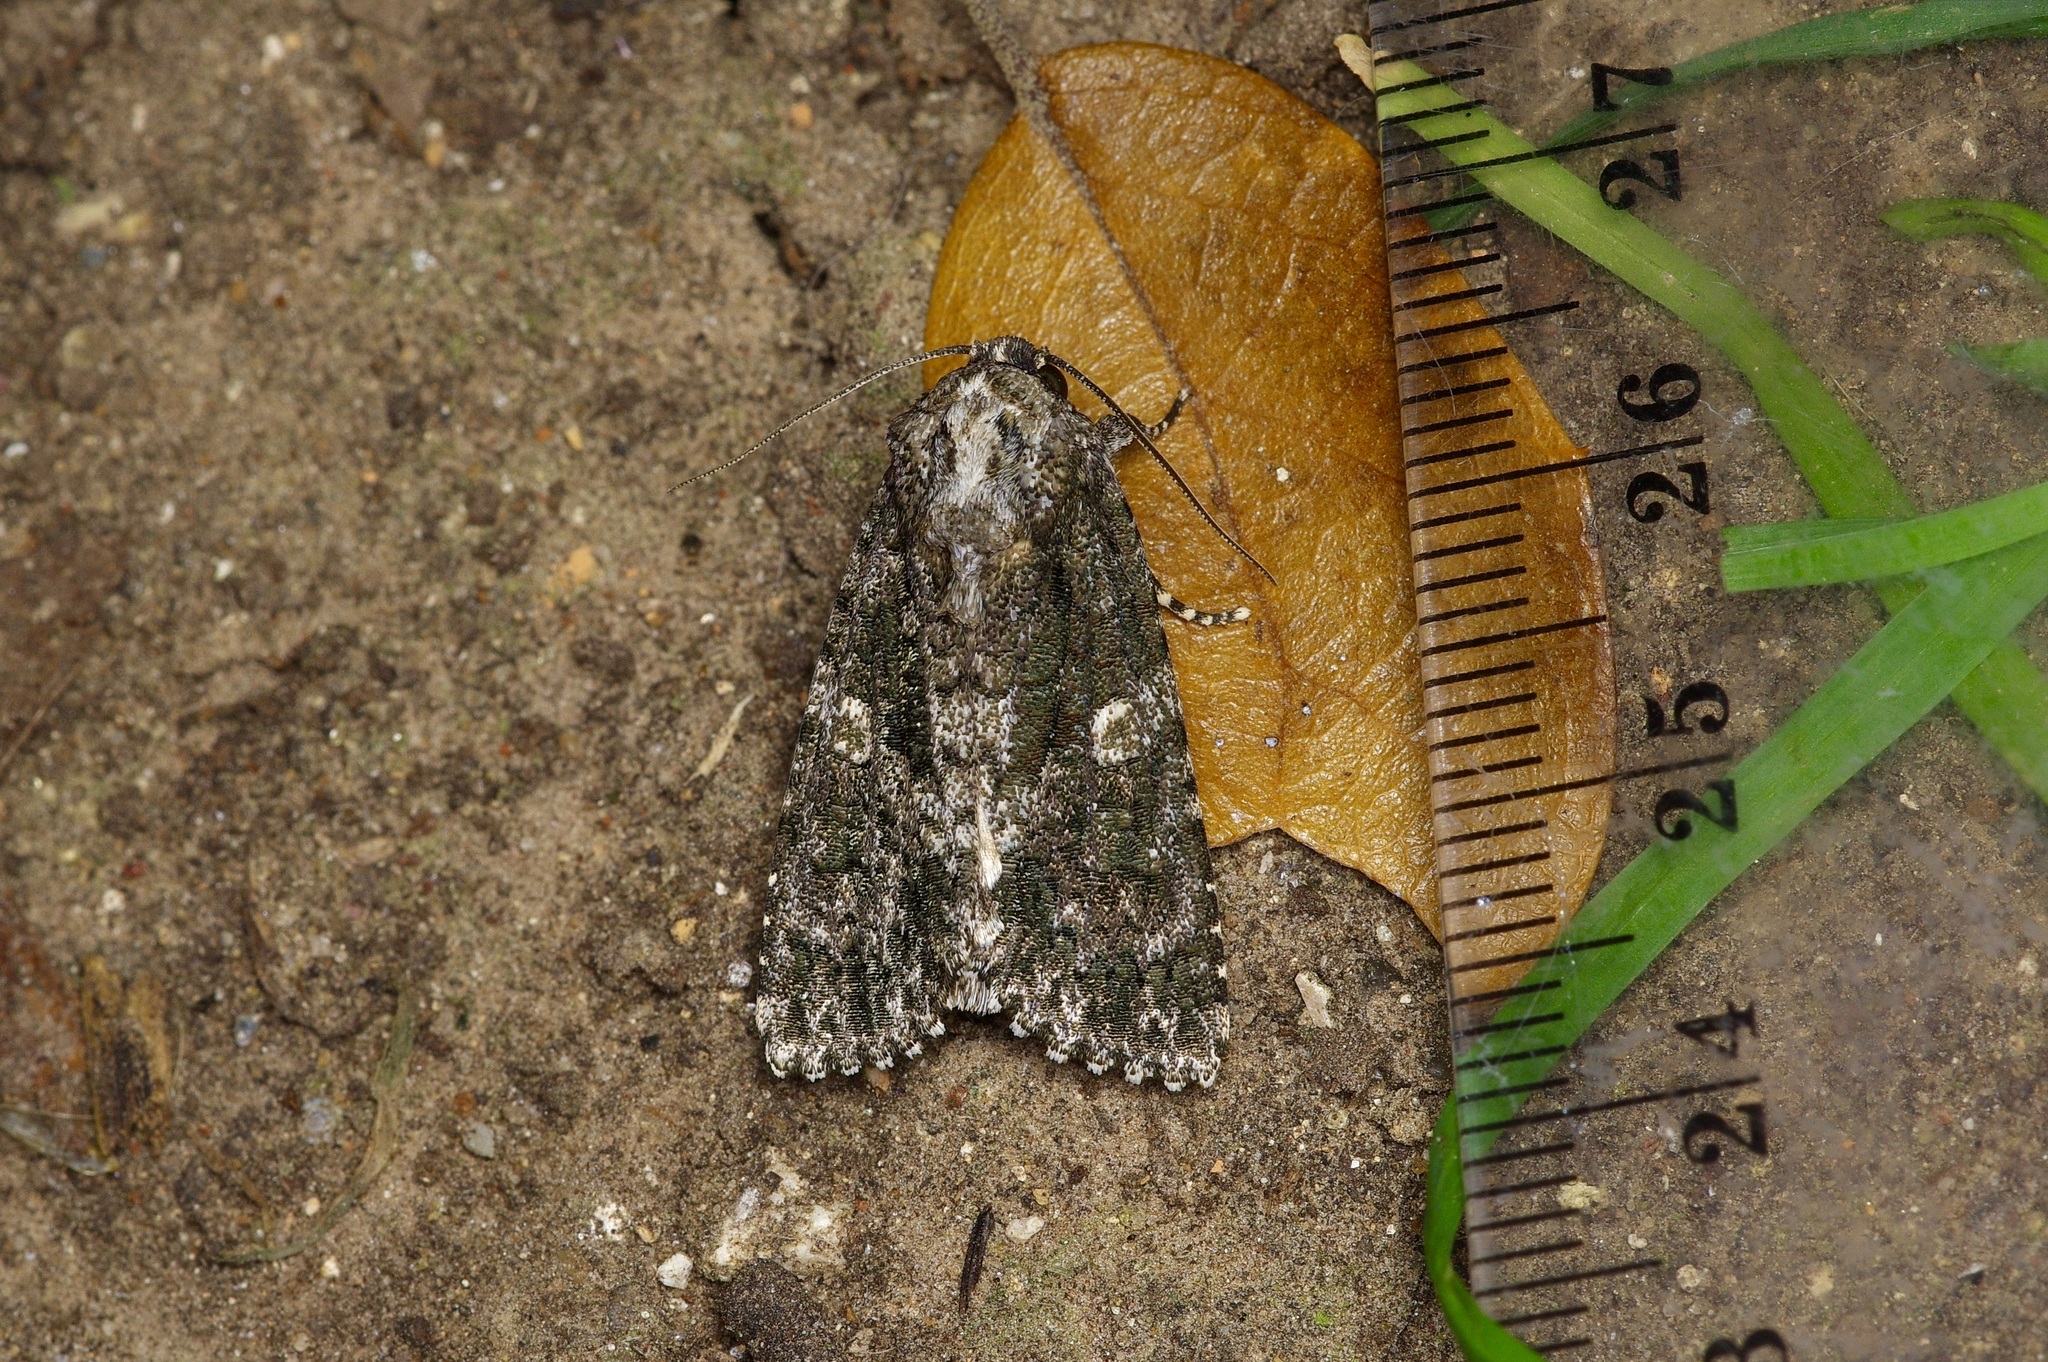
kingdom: Animalia
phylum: Arthropoda
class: Insecta
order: Lepidoptera
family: Noctuidae
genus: Acronicta
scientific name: Acronicta afflicta
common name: Afflicted dagger moth
